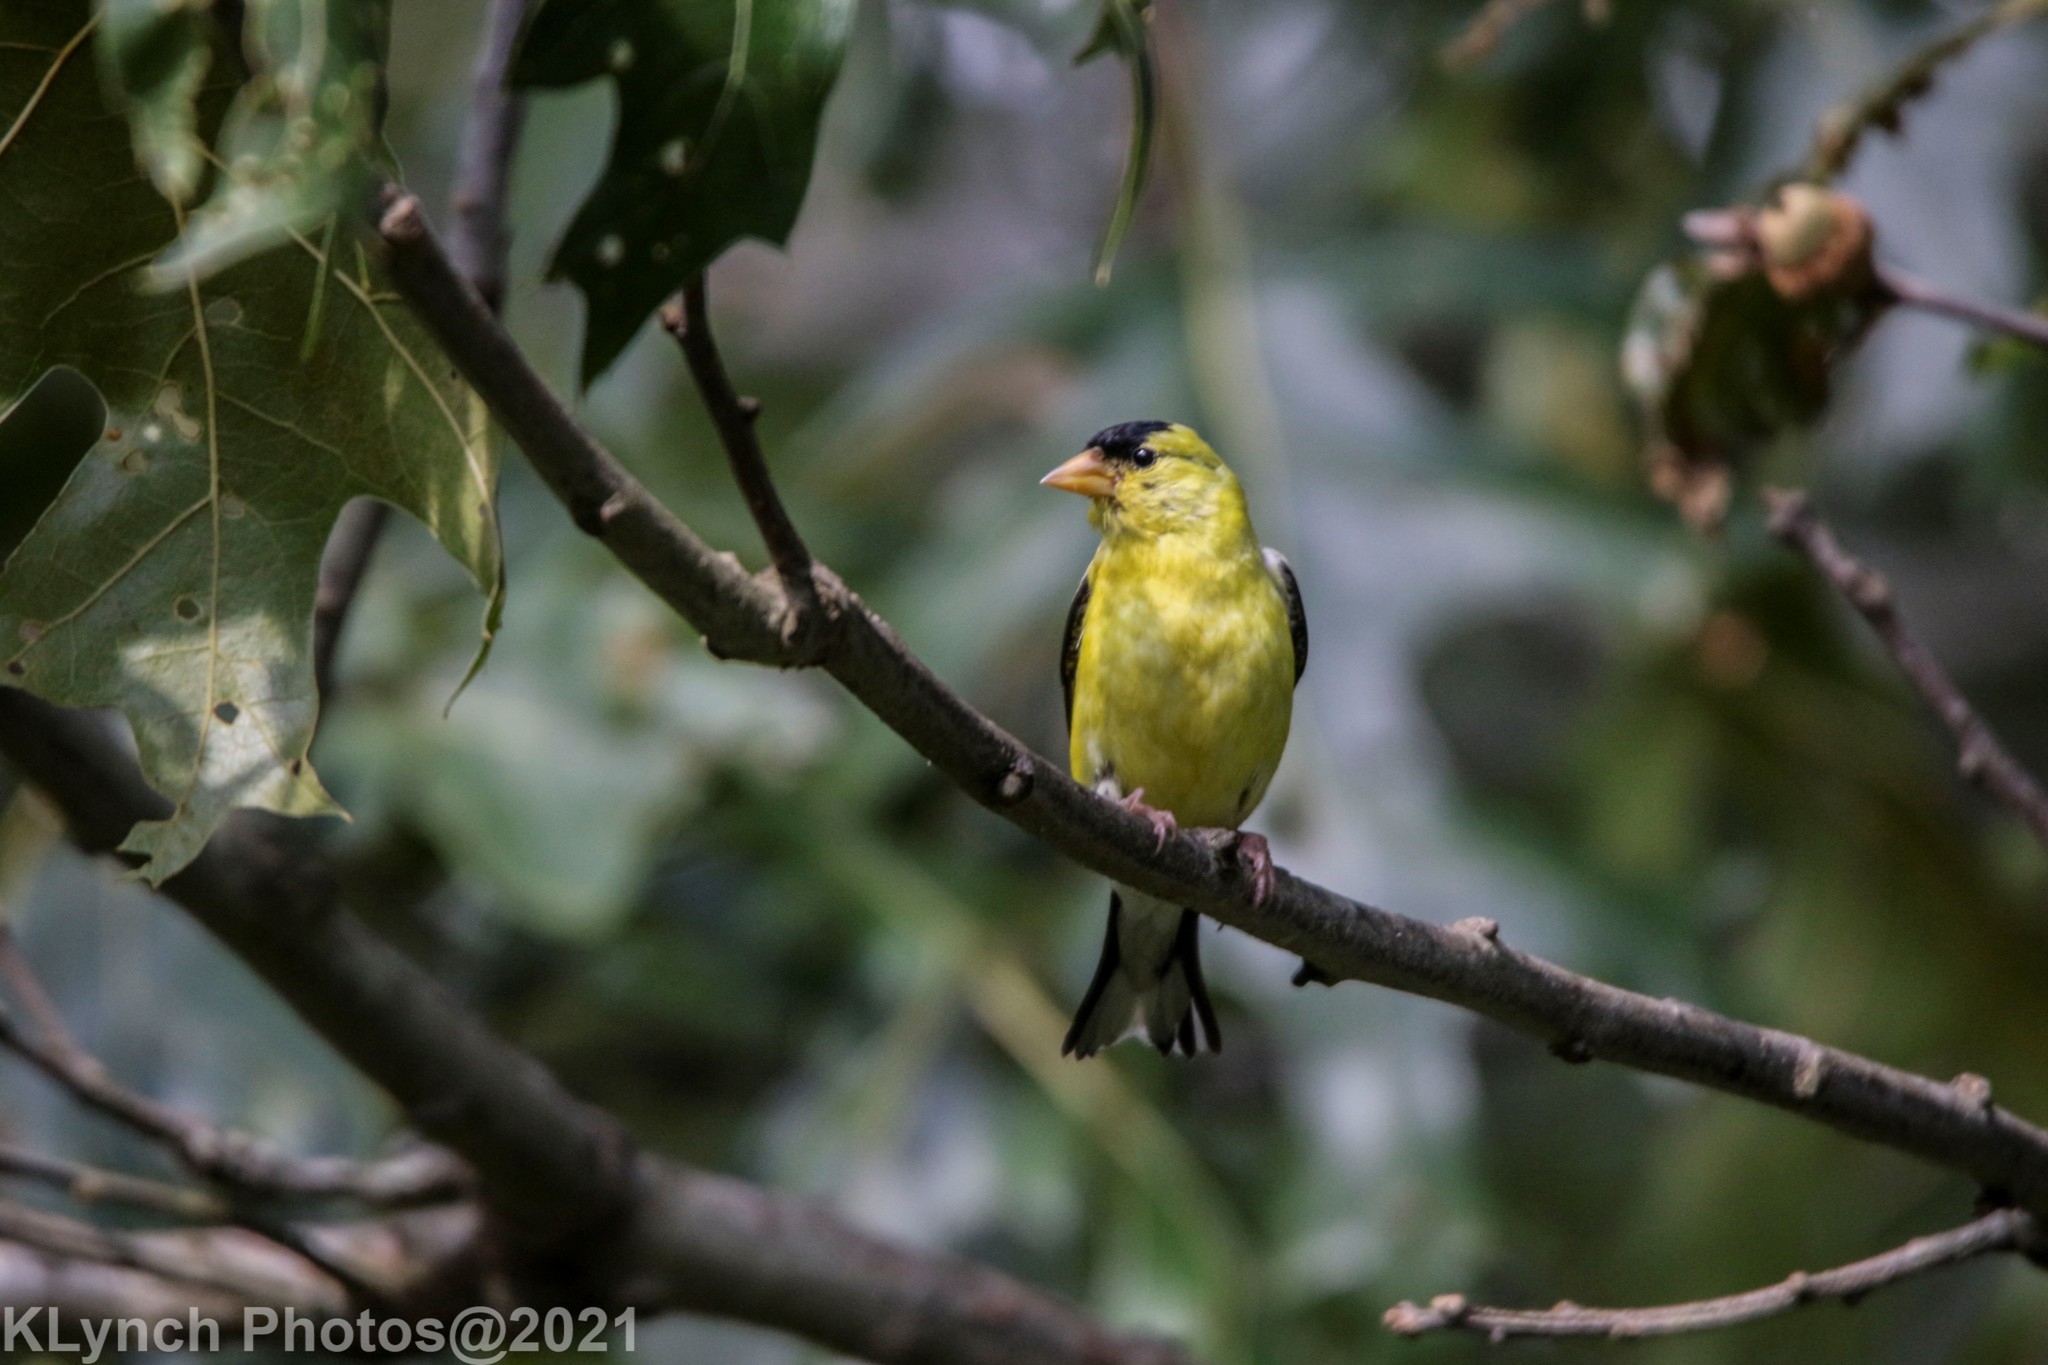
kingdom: Animalia
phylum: Chordata
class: Aves
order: Passeriformes
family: Fringillidae
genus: Spinus
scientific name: Spinus tristis
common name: American goldfinch
